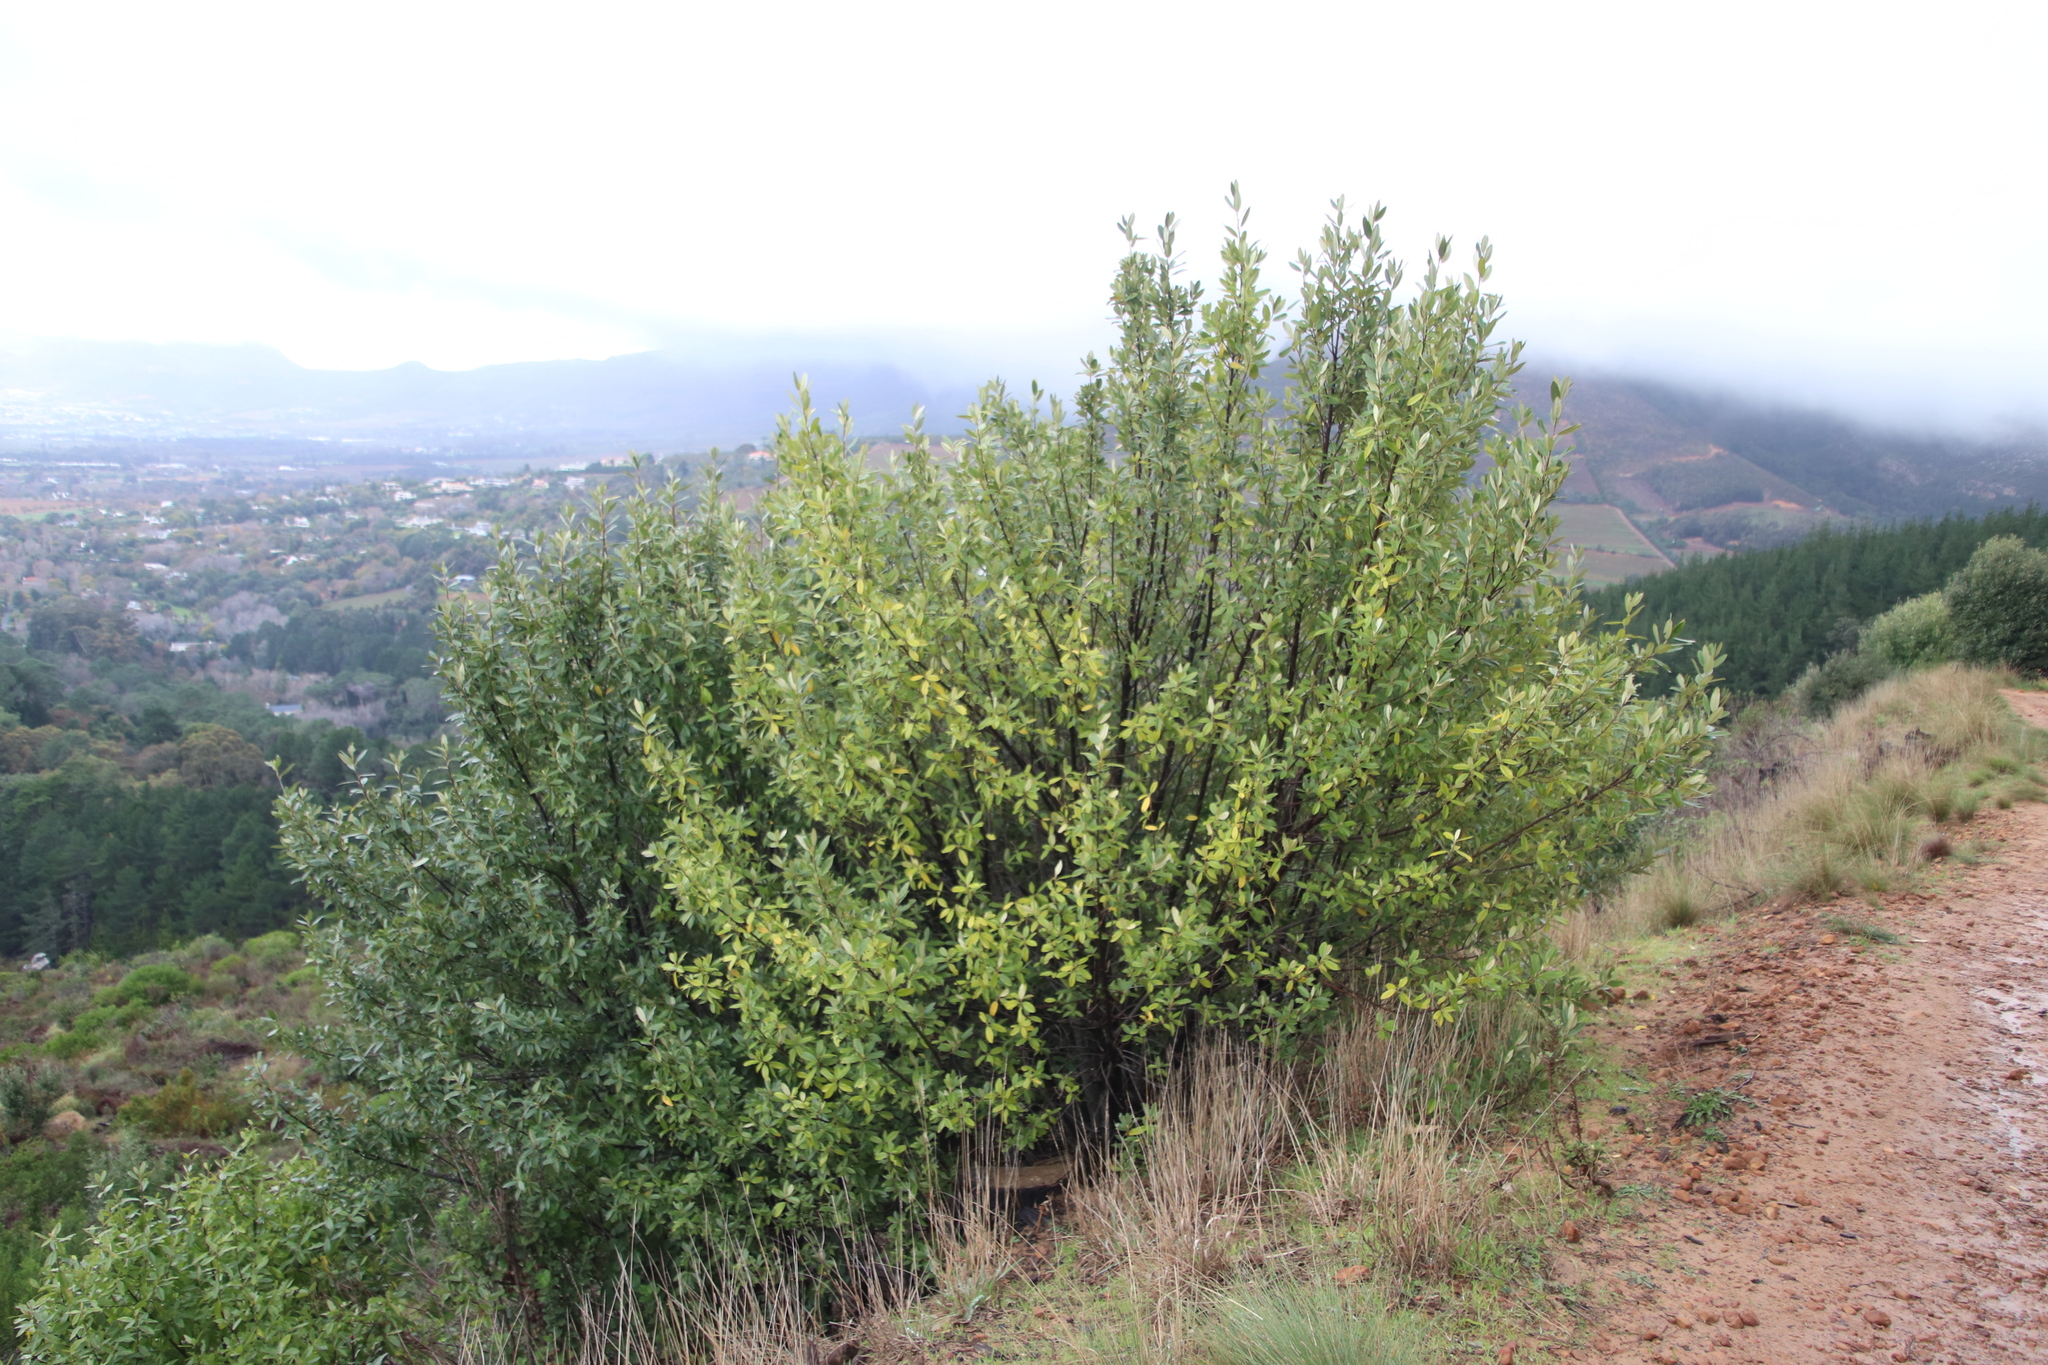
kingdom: Plantae
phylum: Tracheophyta
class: Magnoliopsida
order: Malpighiales
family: Achariaceae
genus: Kiggelaria
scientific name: Kiggelaria africana
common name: Wild peach
